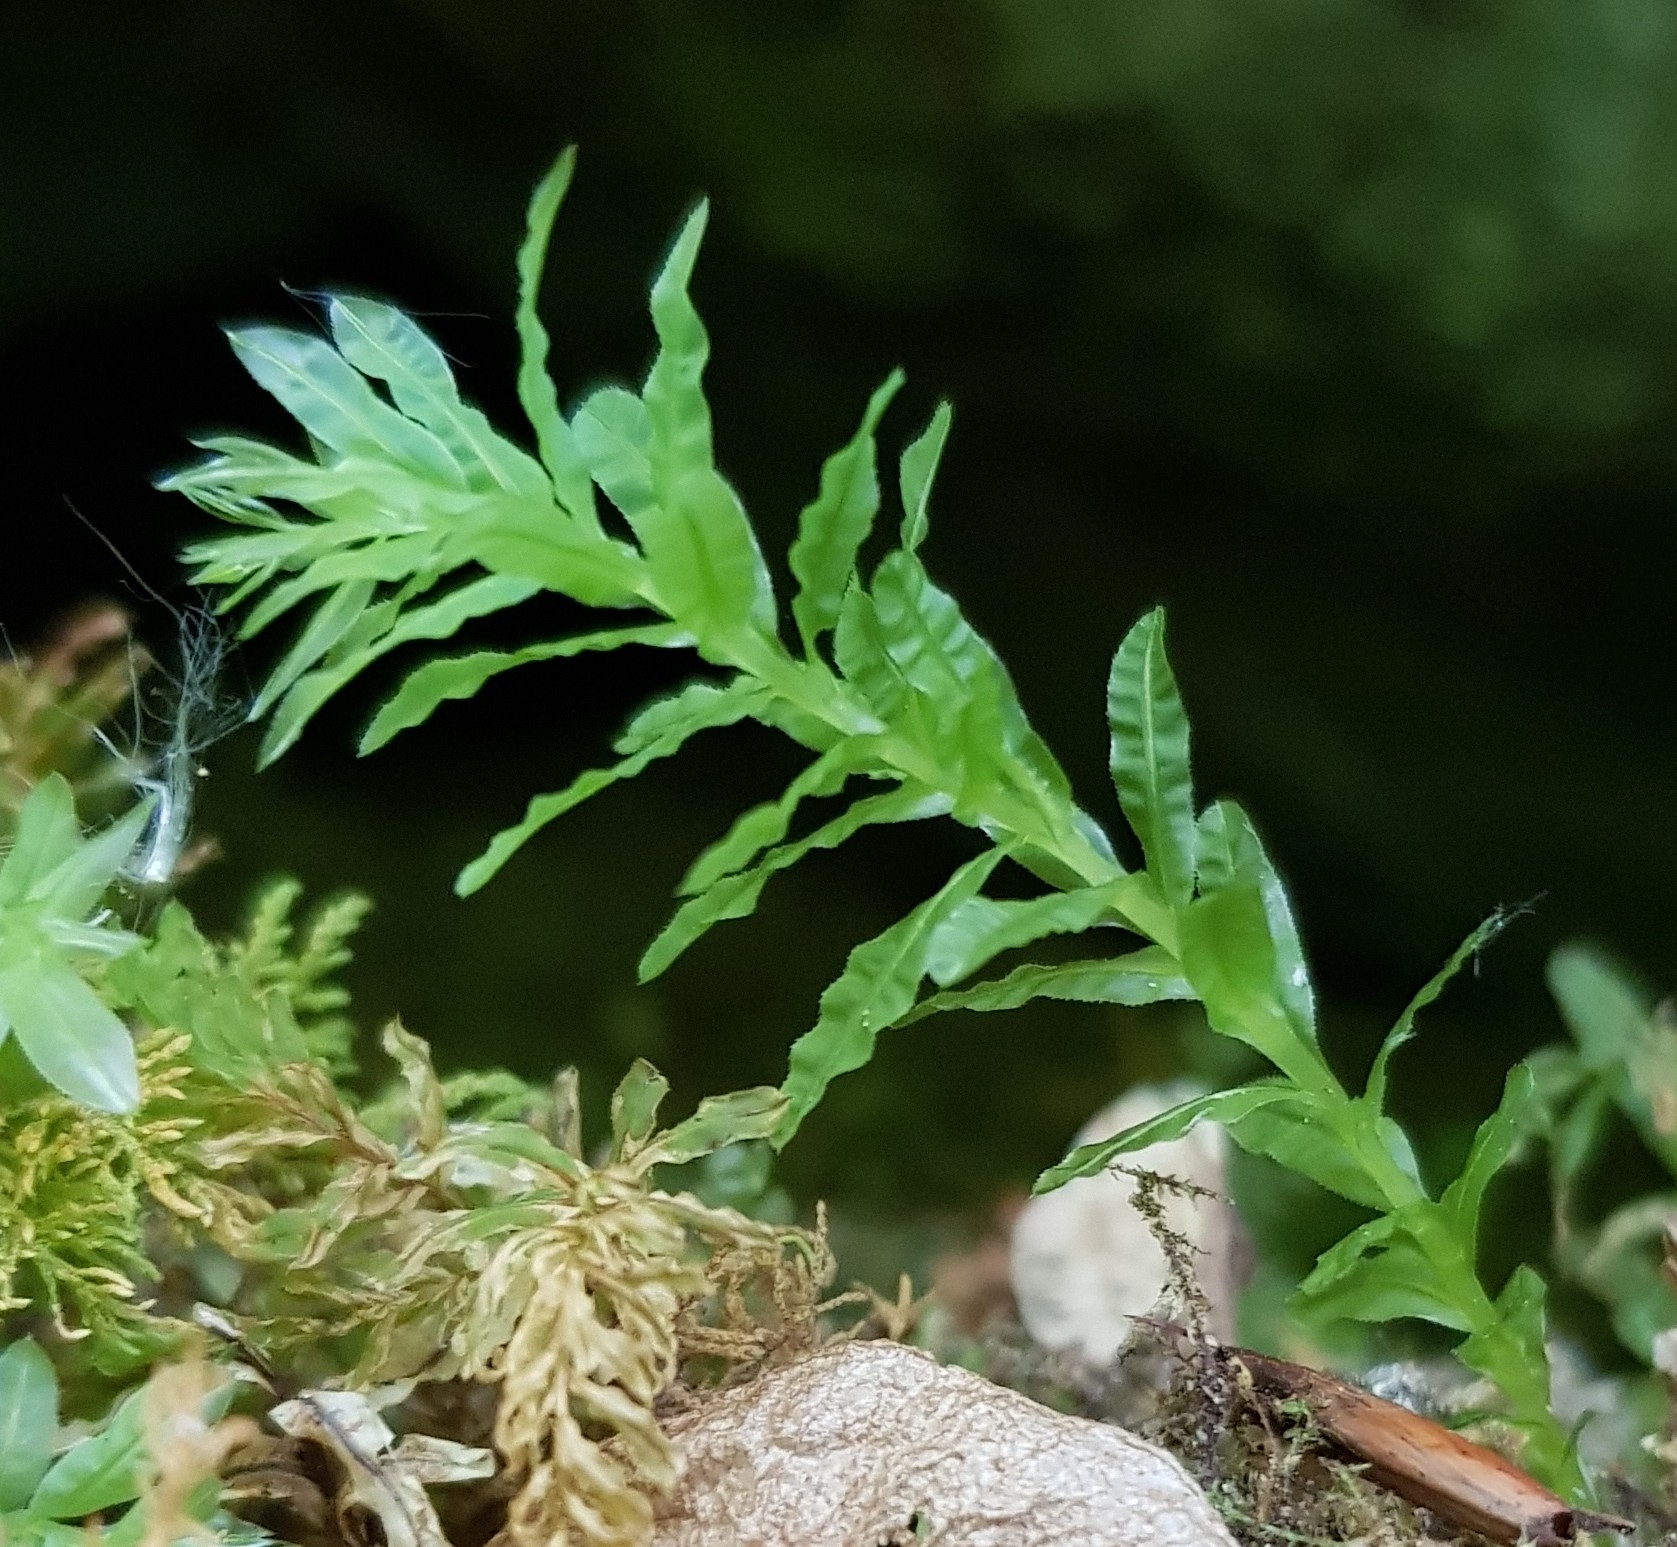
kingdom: Plantae
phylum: Bryophyta
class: Bryopsida
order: Bryales
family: Mniaceae
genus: Plagiomnium
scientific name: Plagiomnium undulatum
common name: Hart's-tongue thyme-moss
